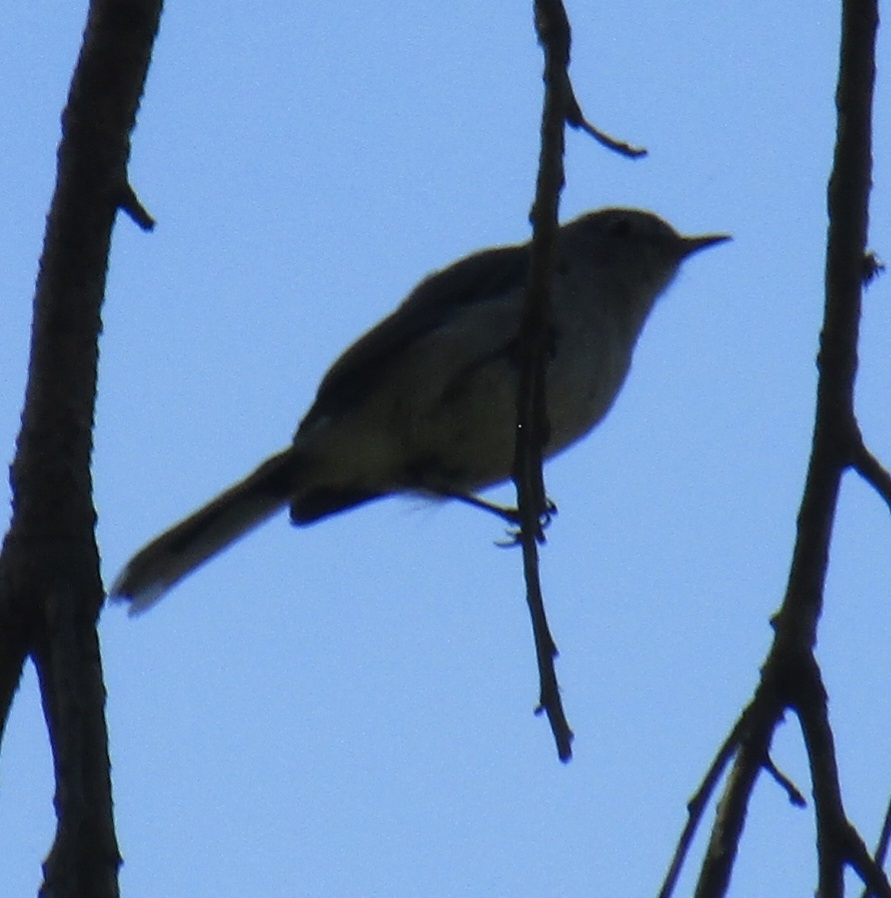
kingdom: Animalia
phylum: Chordata
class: Aves
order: Passeriformes
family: Polioptilidae
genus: Polioptila
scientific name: Polioptila caerulea
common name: Blue-gray gnatcatcher
